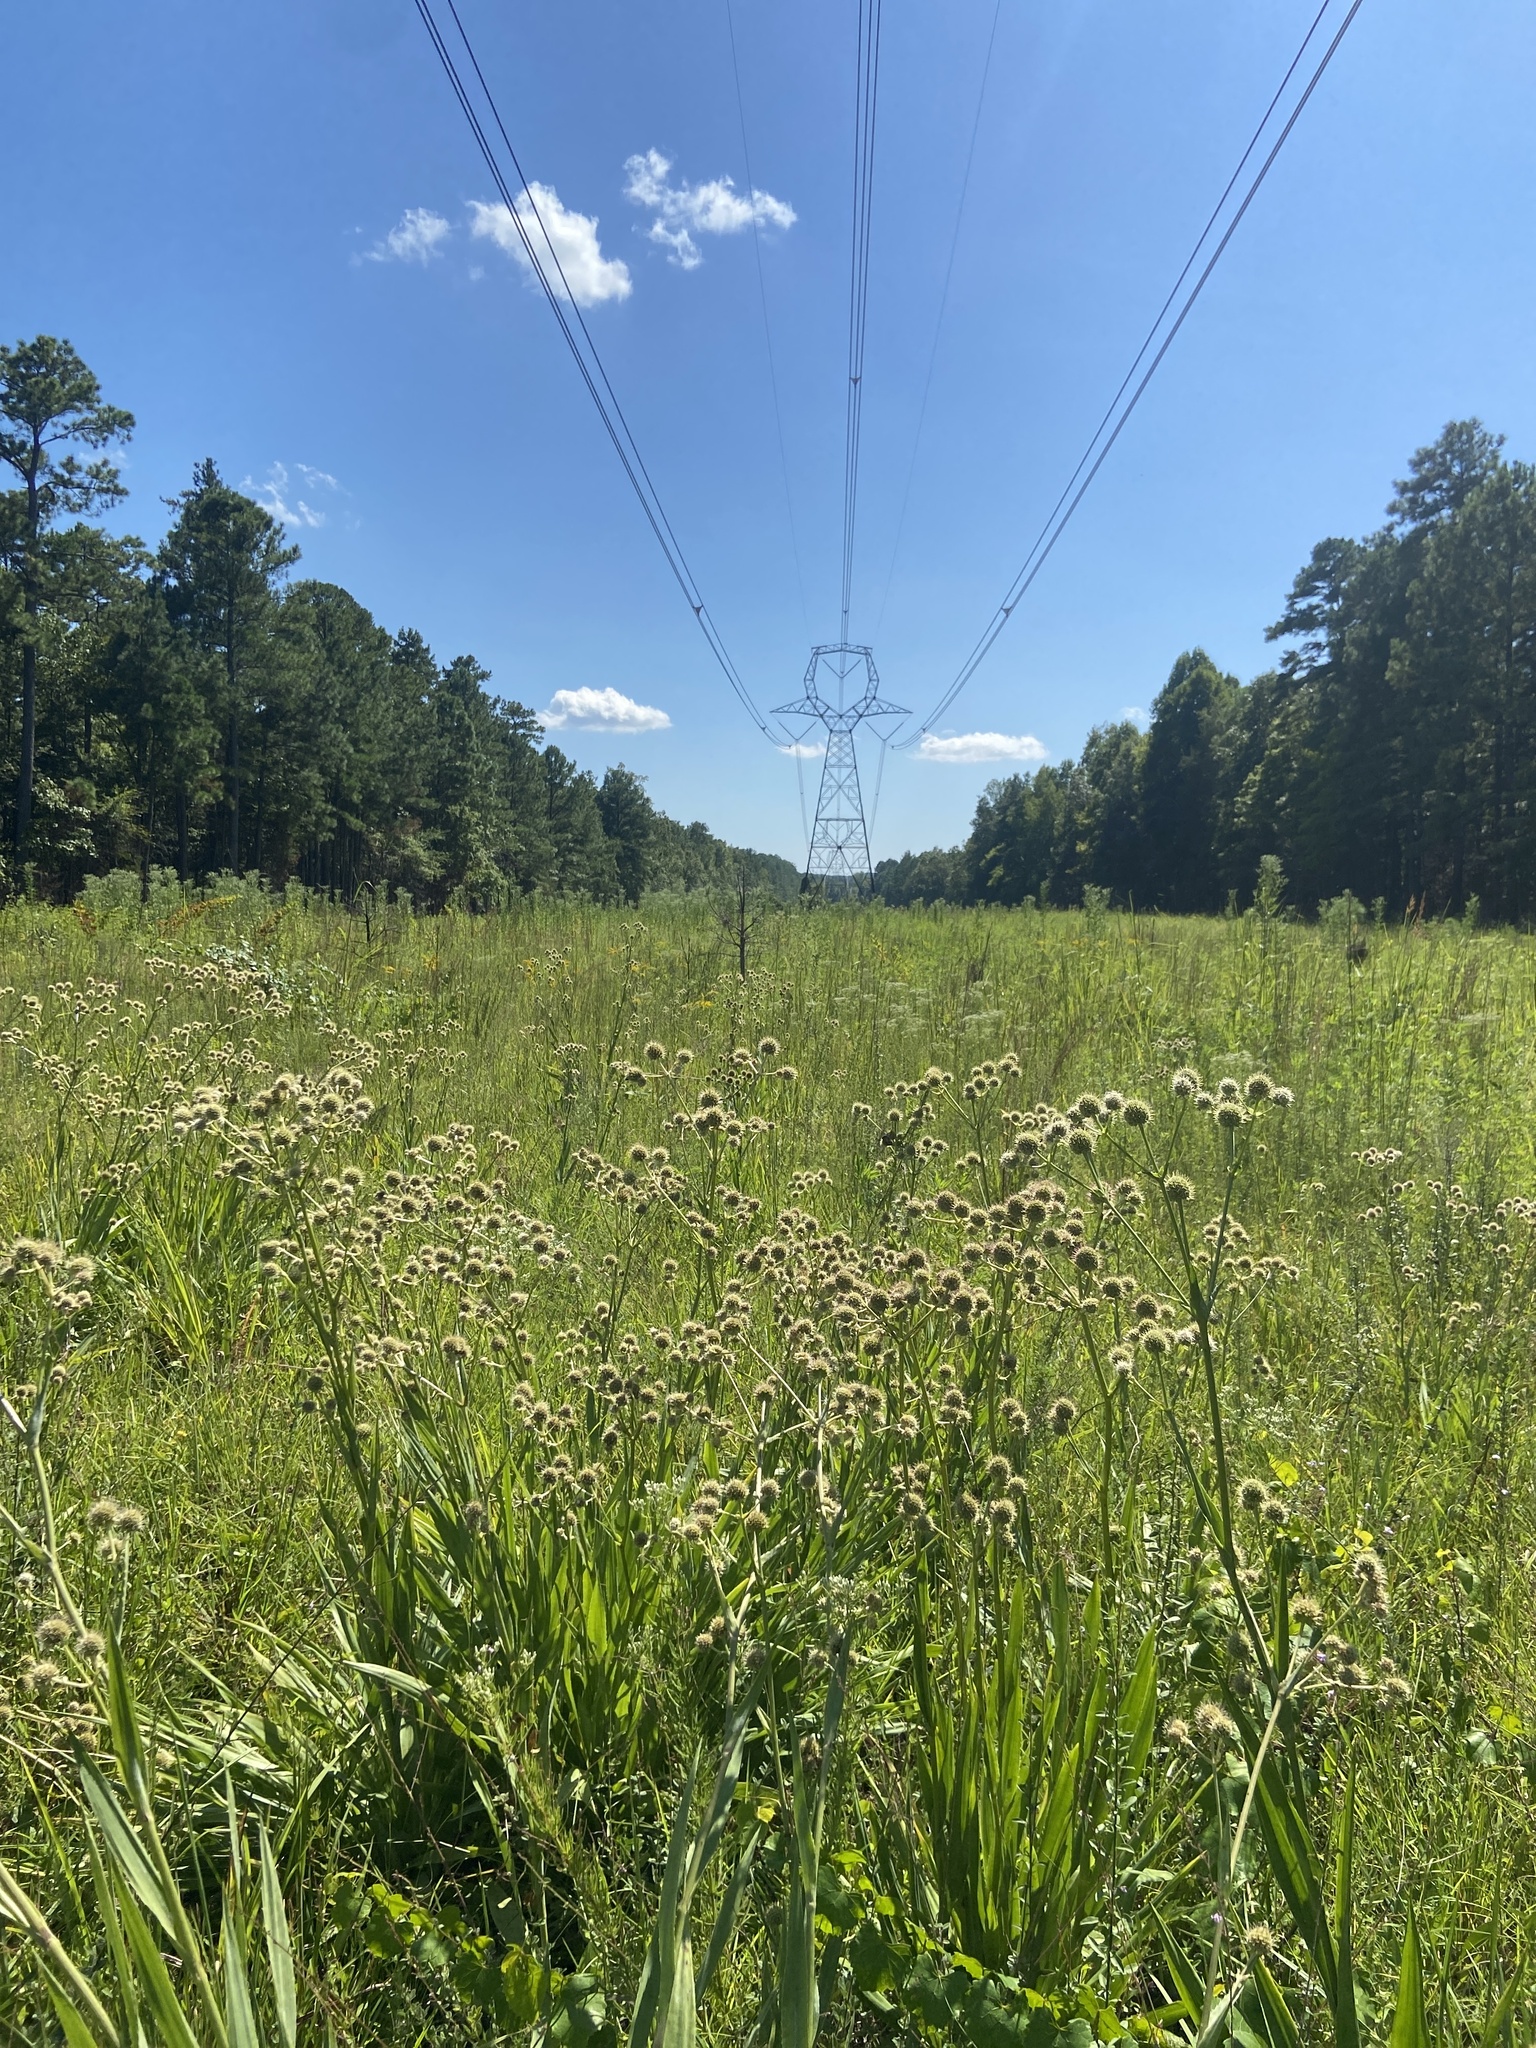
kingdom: Plantae
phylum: Tracheophyta
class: Magnoliopsida
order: Apiales
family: Apiaceae
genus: Eryngium
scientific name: Eryngium yuccifolium
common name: Button eryngo
